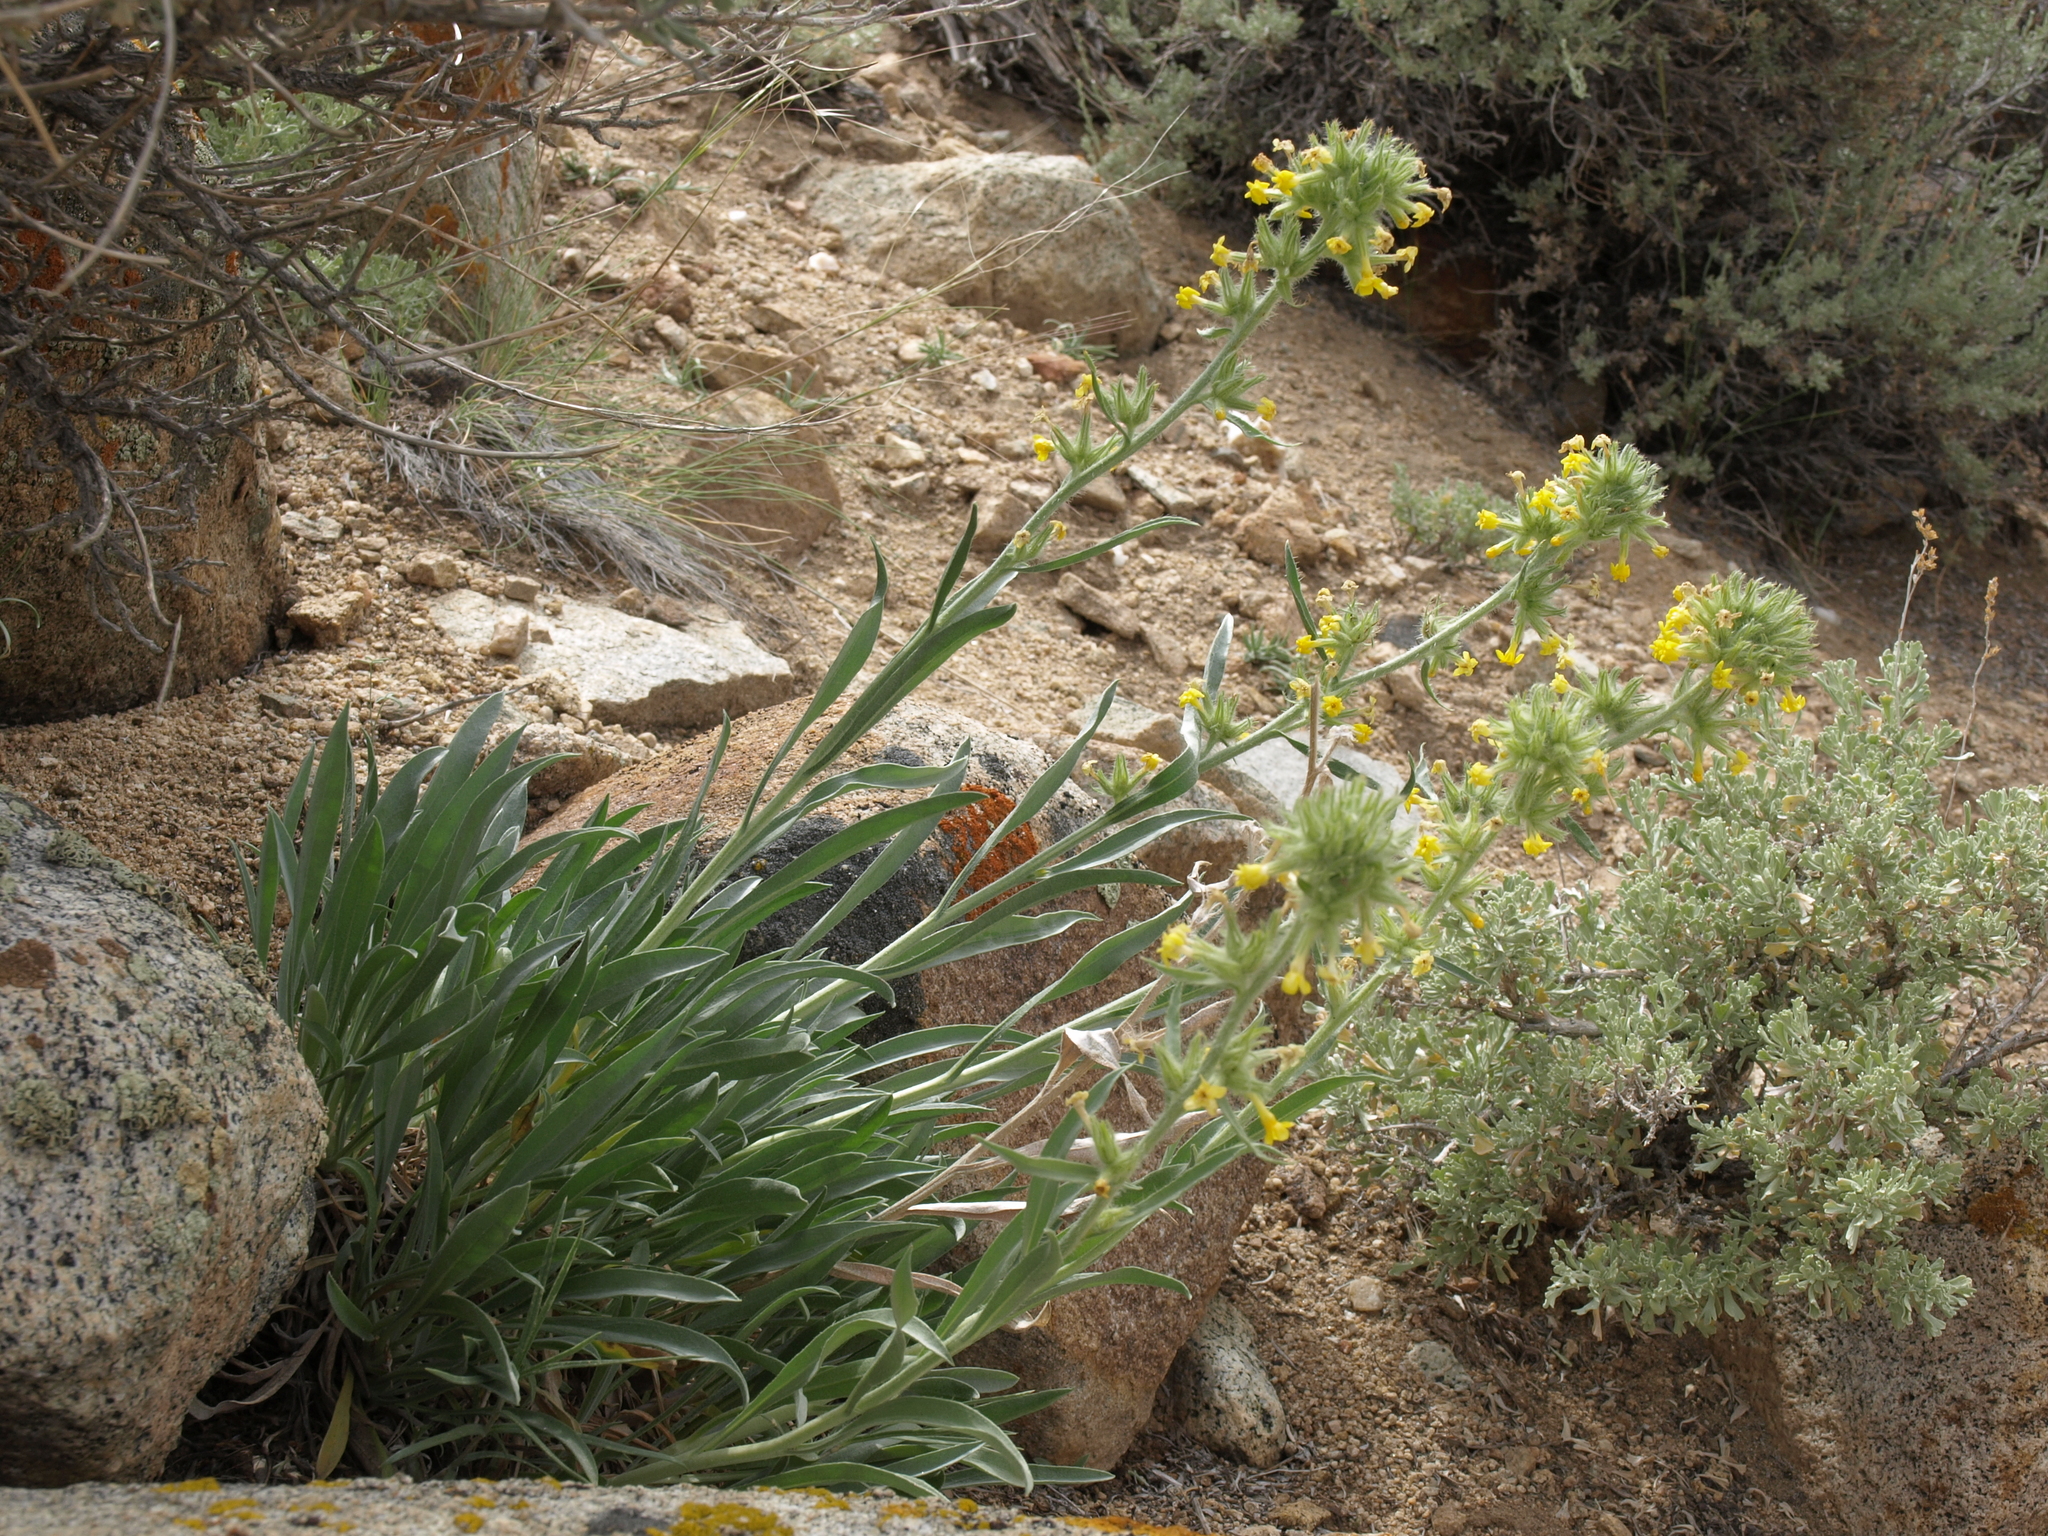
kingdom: Plantae
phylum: Tracheophyta
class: Magnoliopsida
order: Boraginales
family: Boraginaceae
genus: Oreocarya
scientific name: Oreocarya confertiflora
